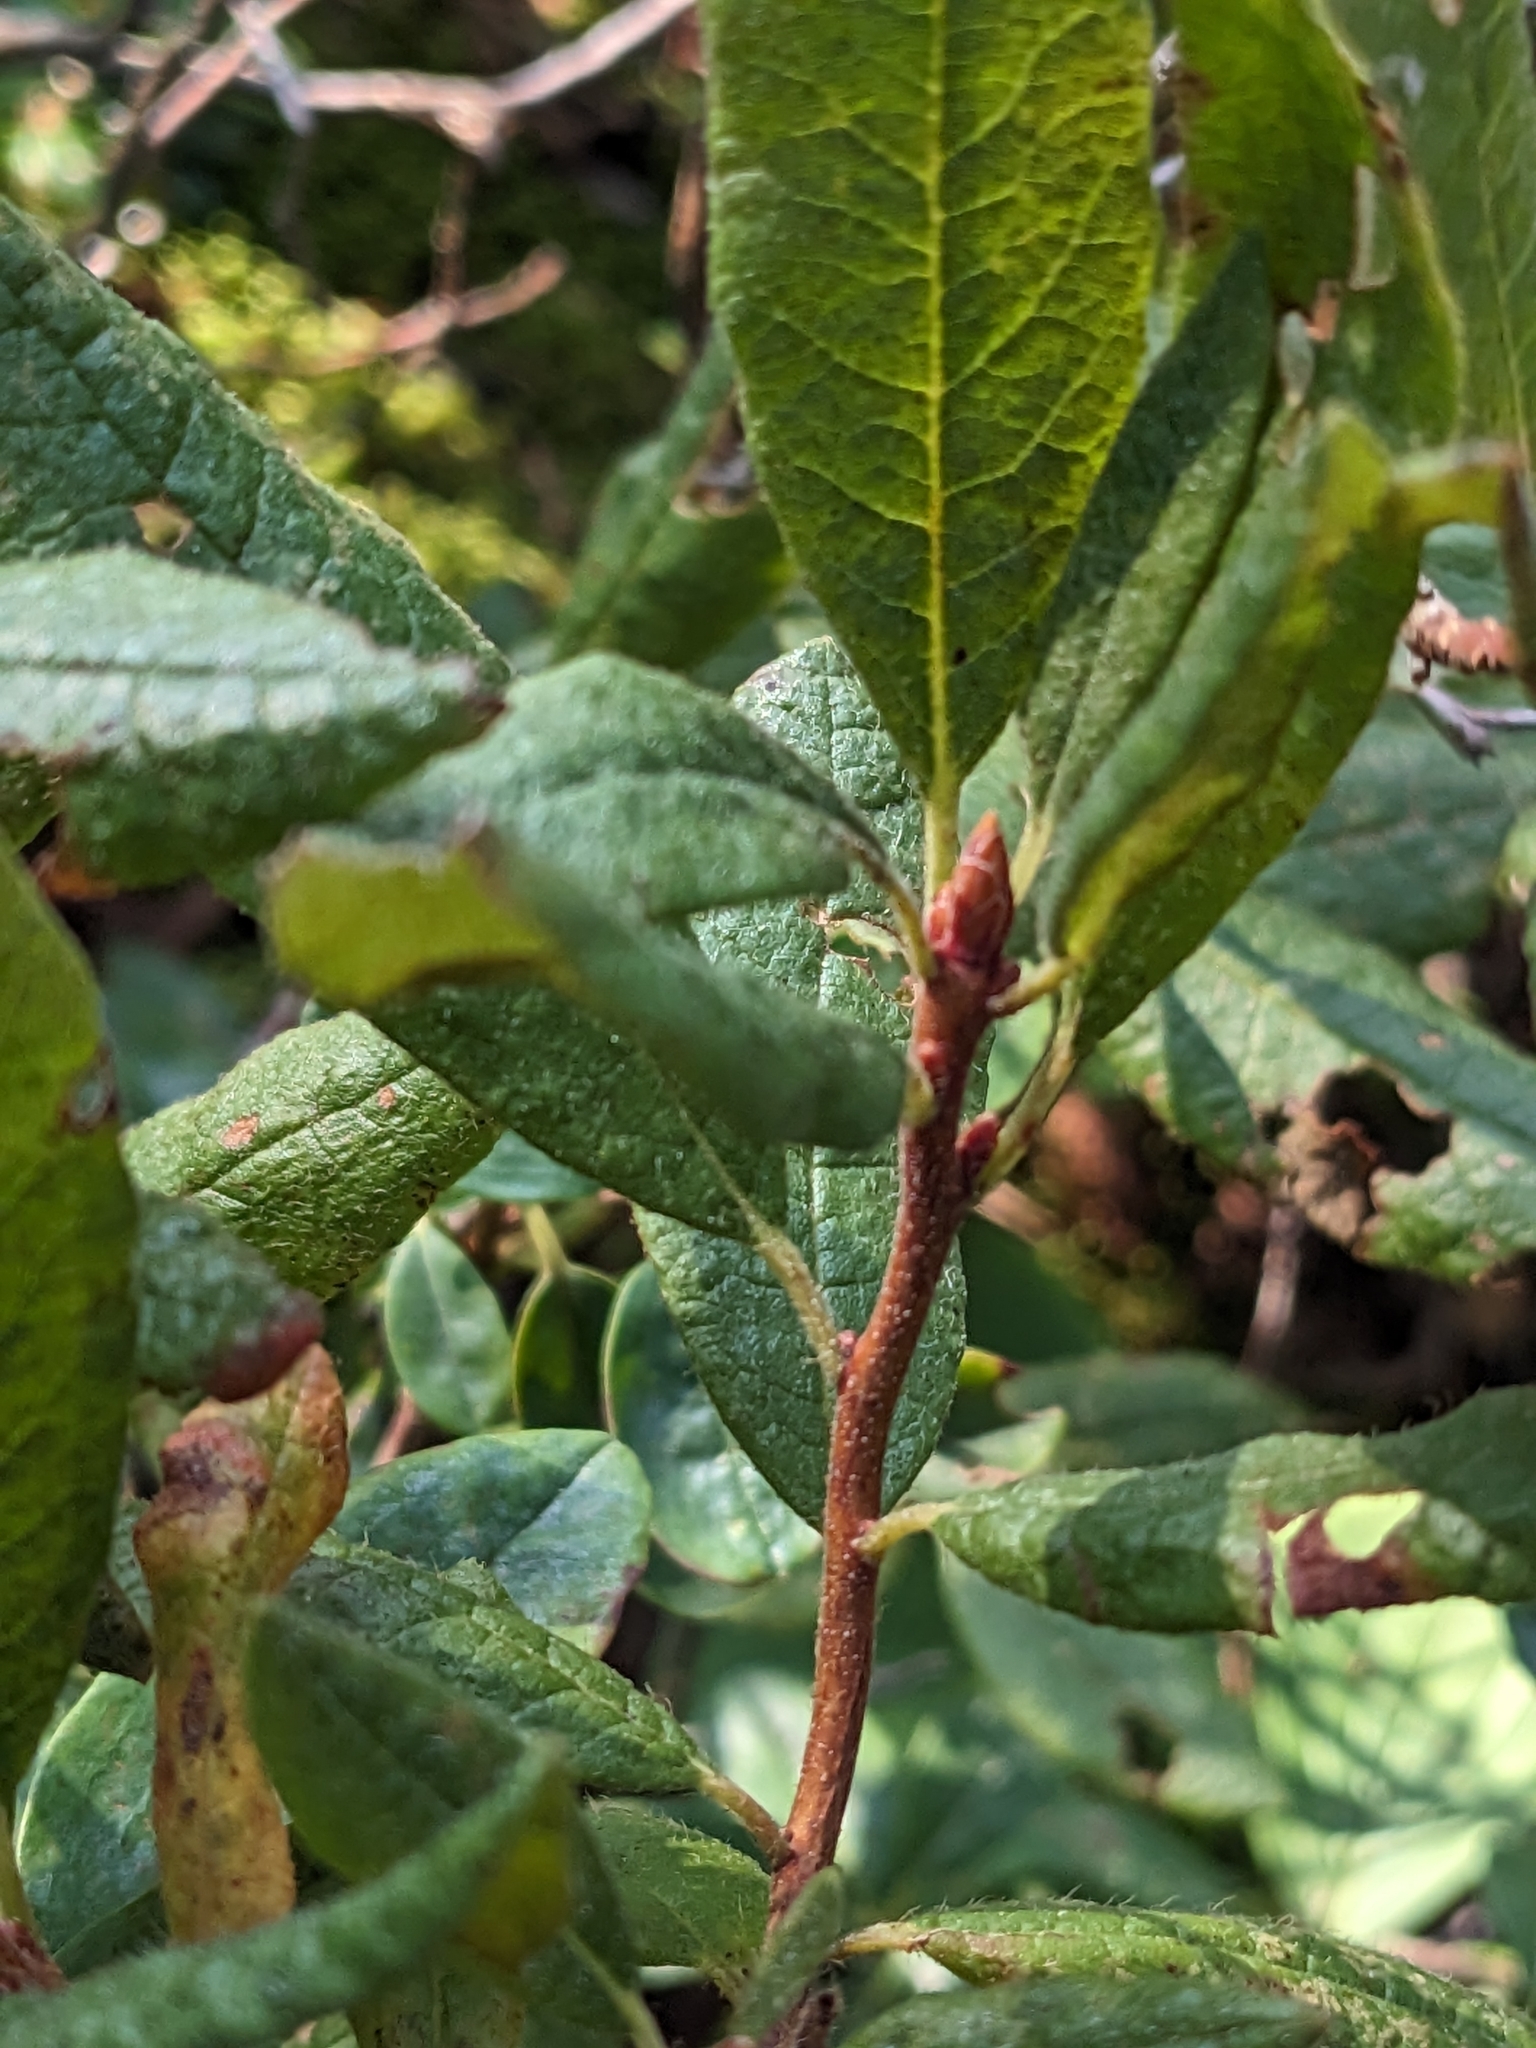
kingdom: Plantae
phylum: Tracheophyta
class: Magnoliopsida
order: Ericales
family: Ericaceae
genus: Rhododendron
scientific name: Rhododendron canadense
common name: Rhodora
